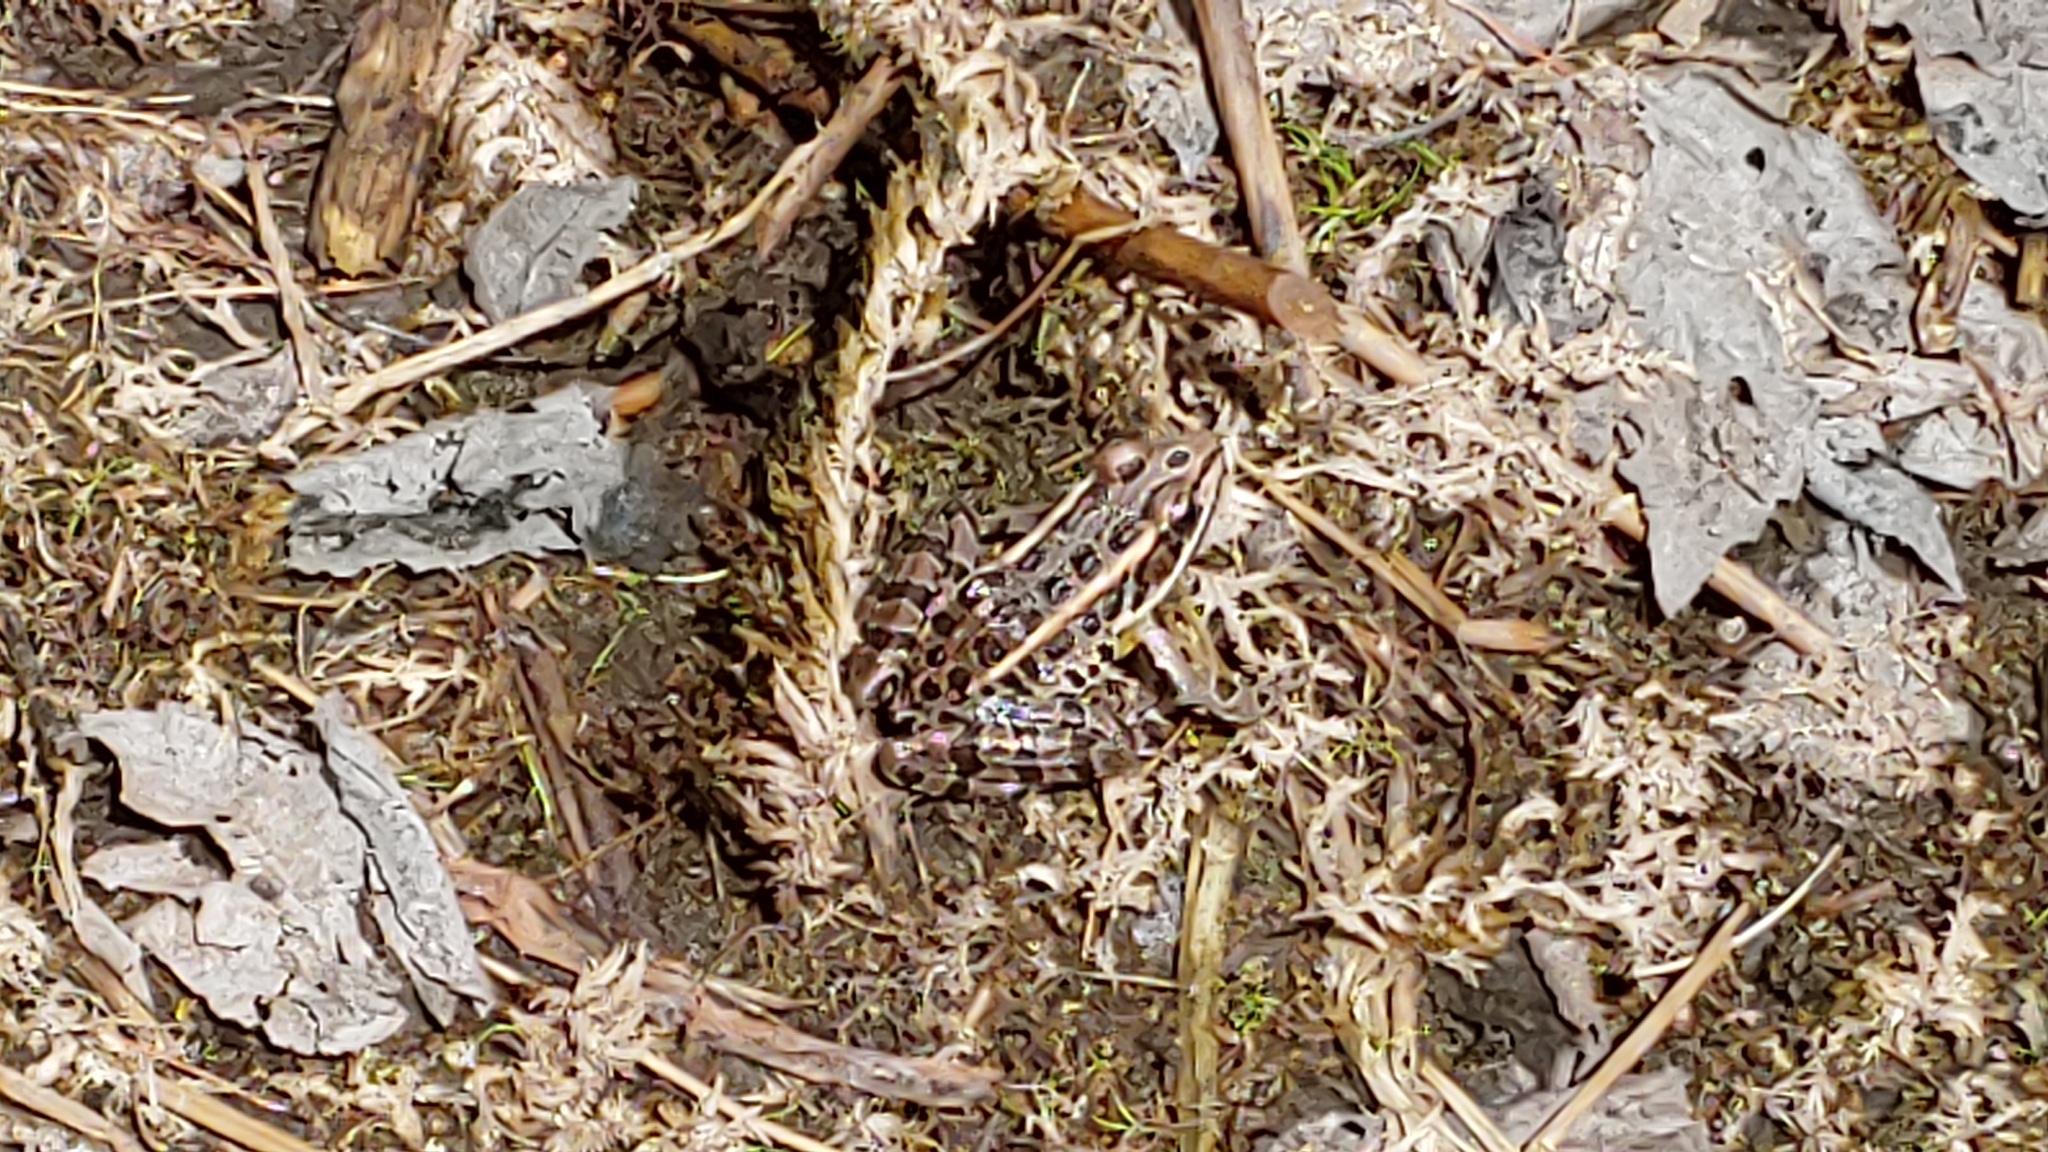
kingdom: Animalia
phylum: Chordata
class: Amphibia
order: Anura
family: Ranidae
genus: Lithobates
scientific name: Lithobates palustris
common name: Pickerel frog
